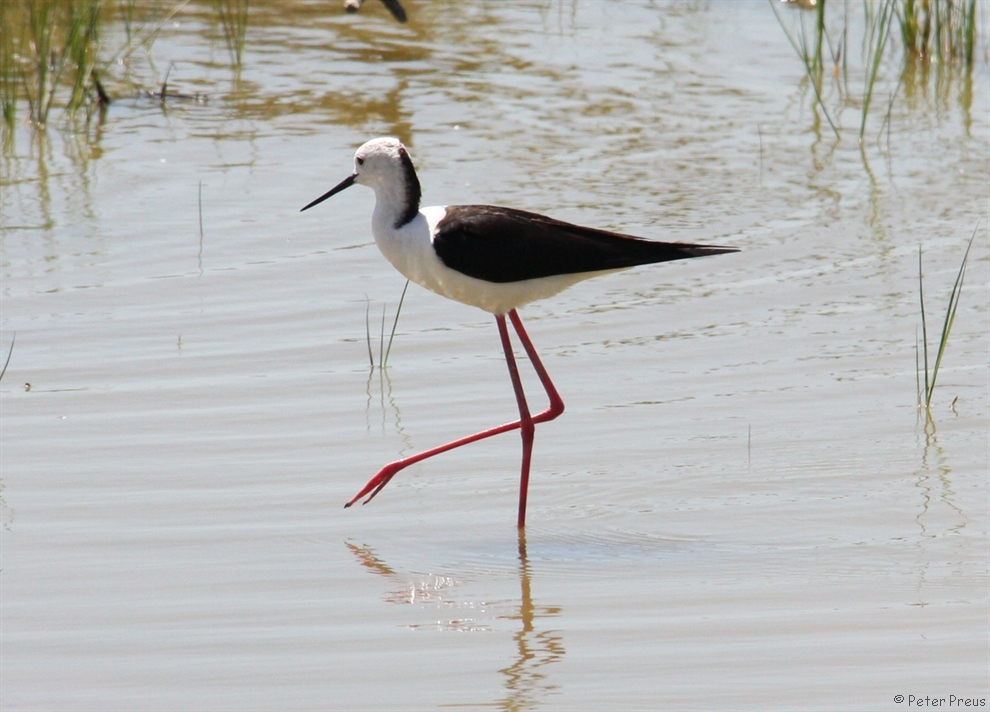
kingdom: Animalia
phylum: Chordata
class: Aves
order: Charadriiformes
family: Recurvirostridae
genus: Himantopus
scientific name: Himantopus himantopus
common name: Black-winged stilt
